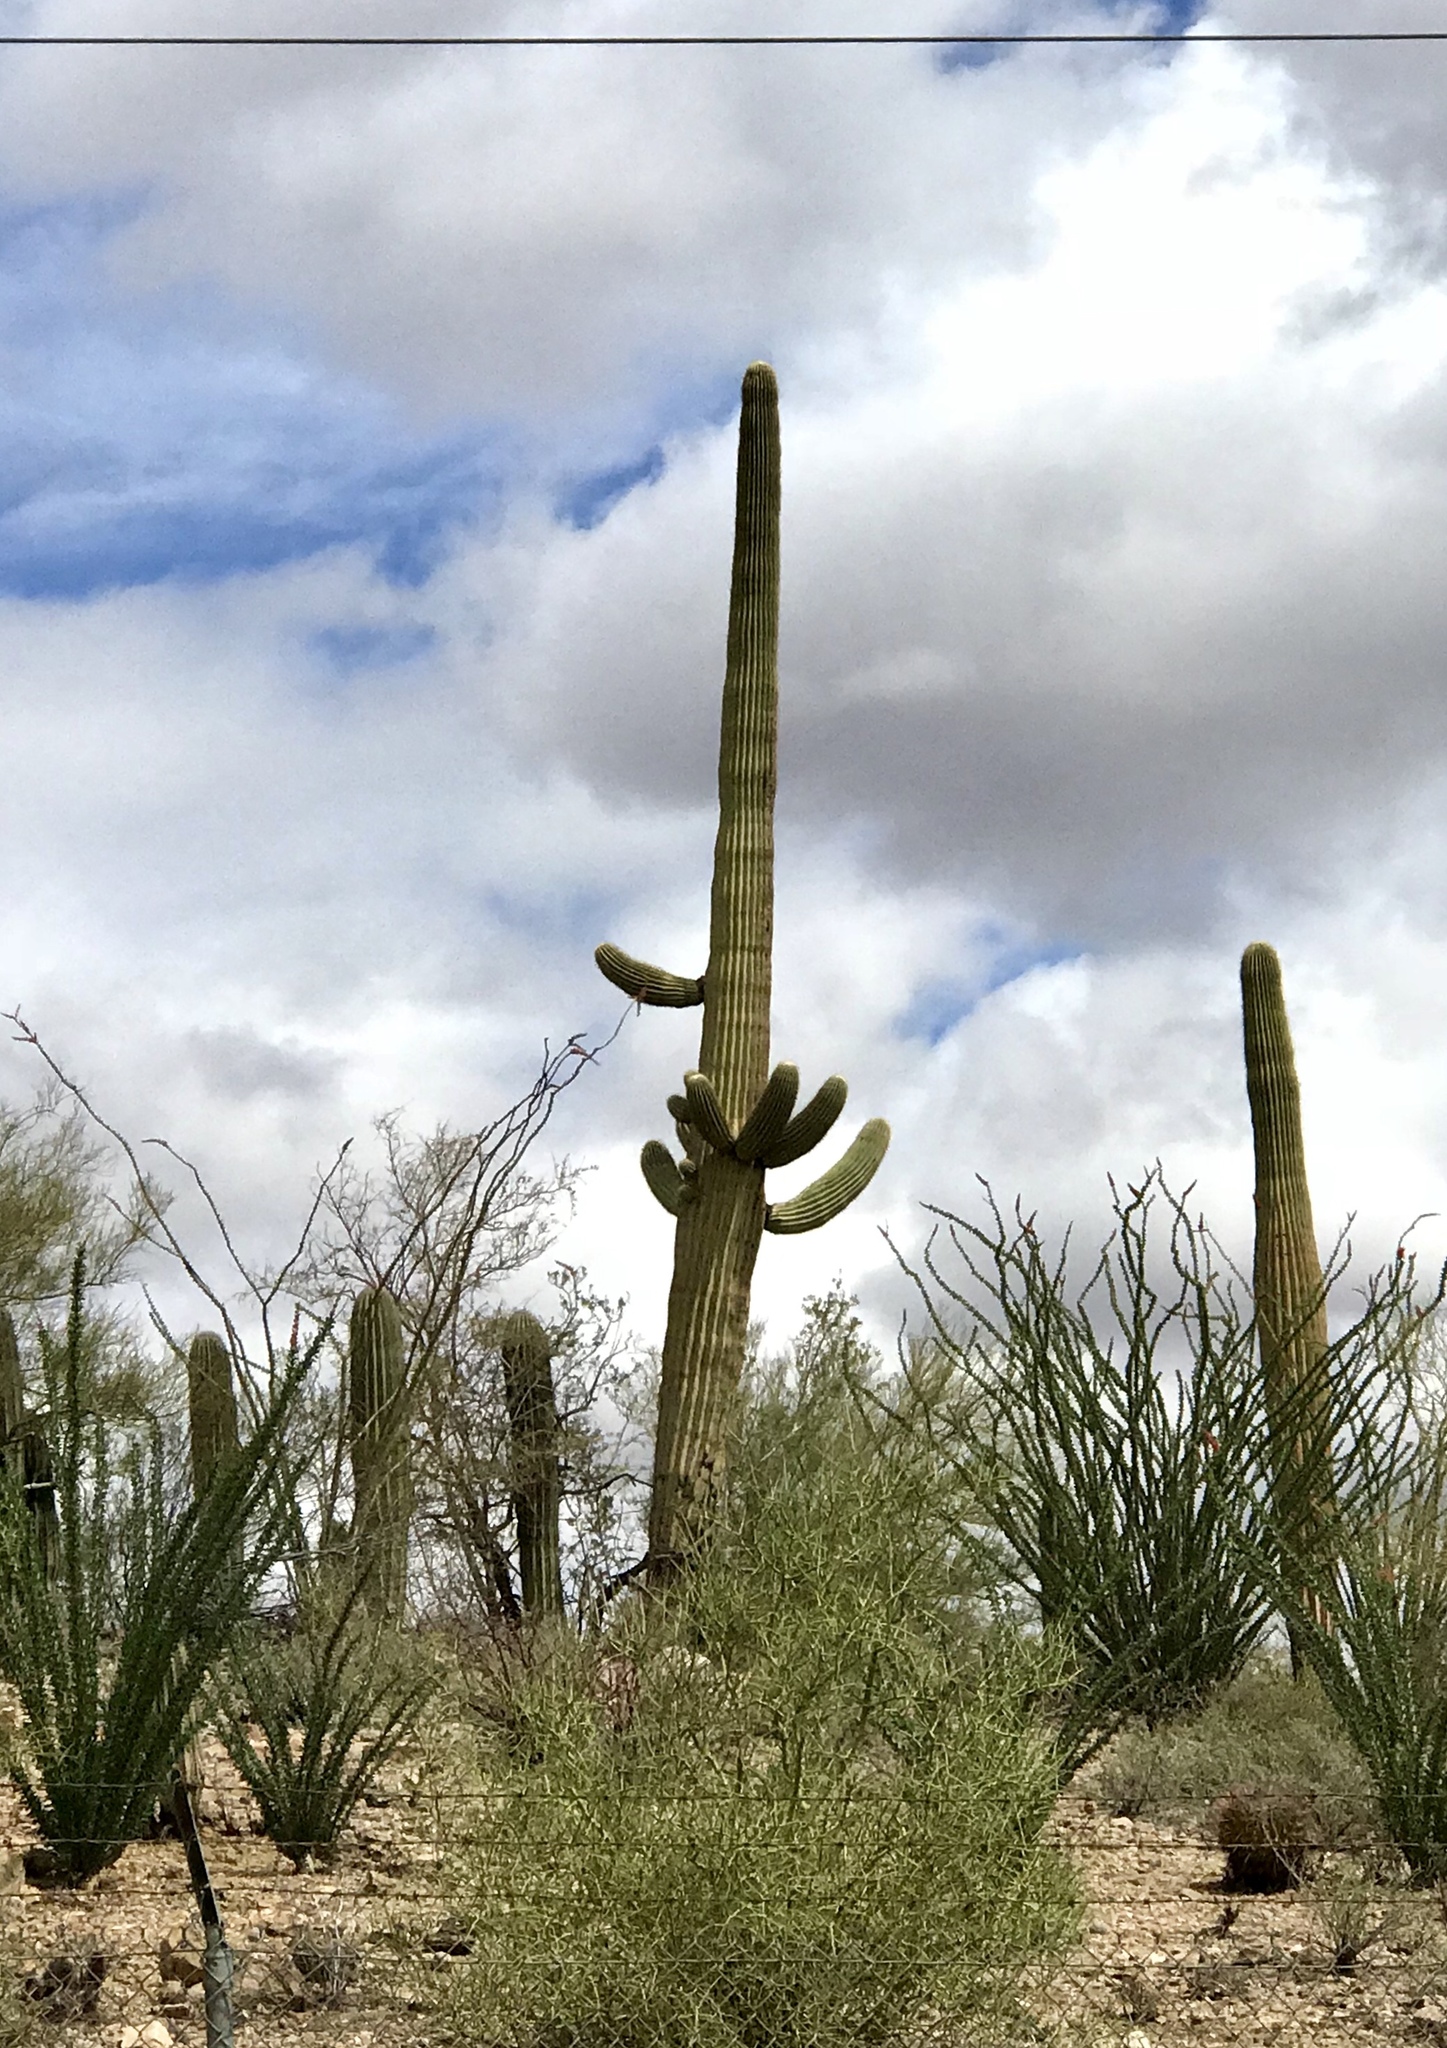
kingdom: Plantae
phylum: Tracheophyta
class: Magnoliopsida
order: Caryophyllales
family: Cactaceae
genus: Carnegiea
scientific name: Carnegiea gigantea
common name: Saguaro
